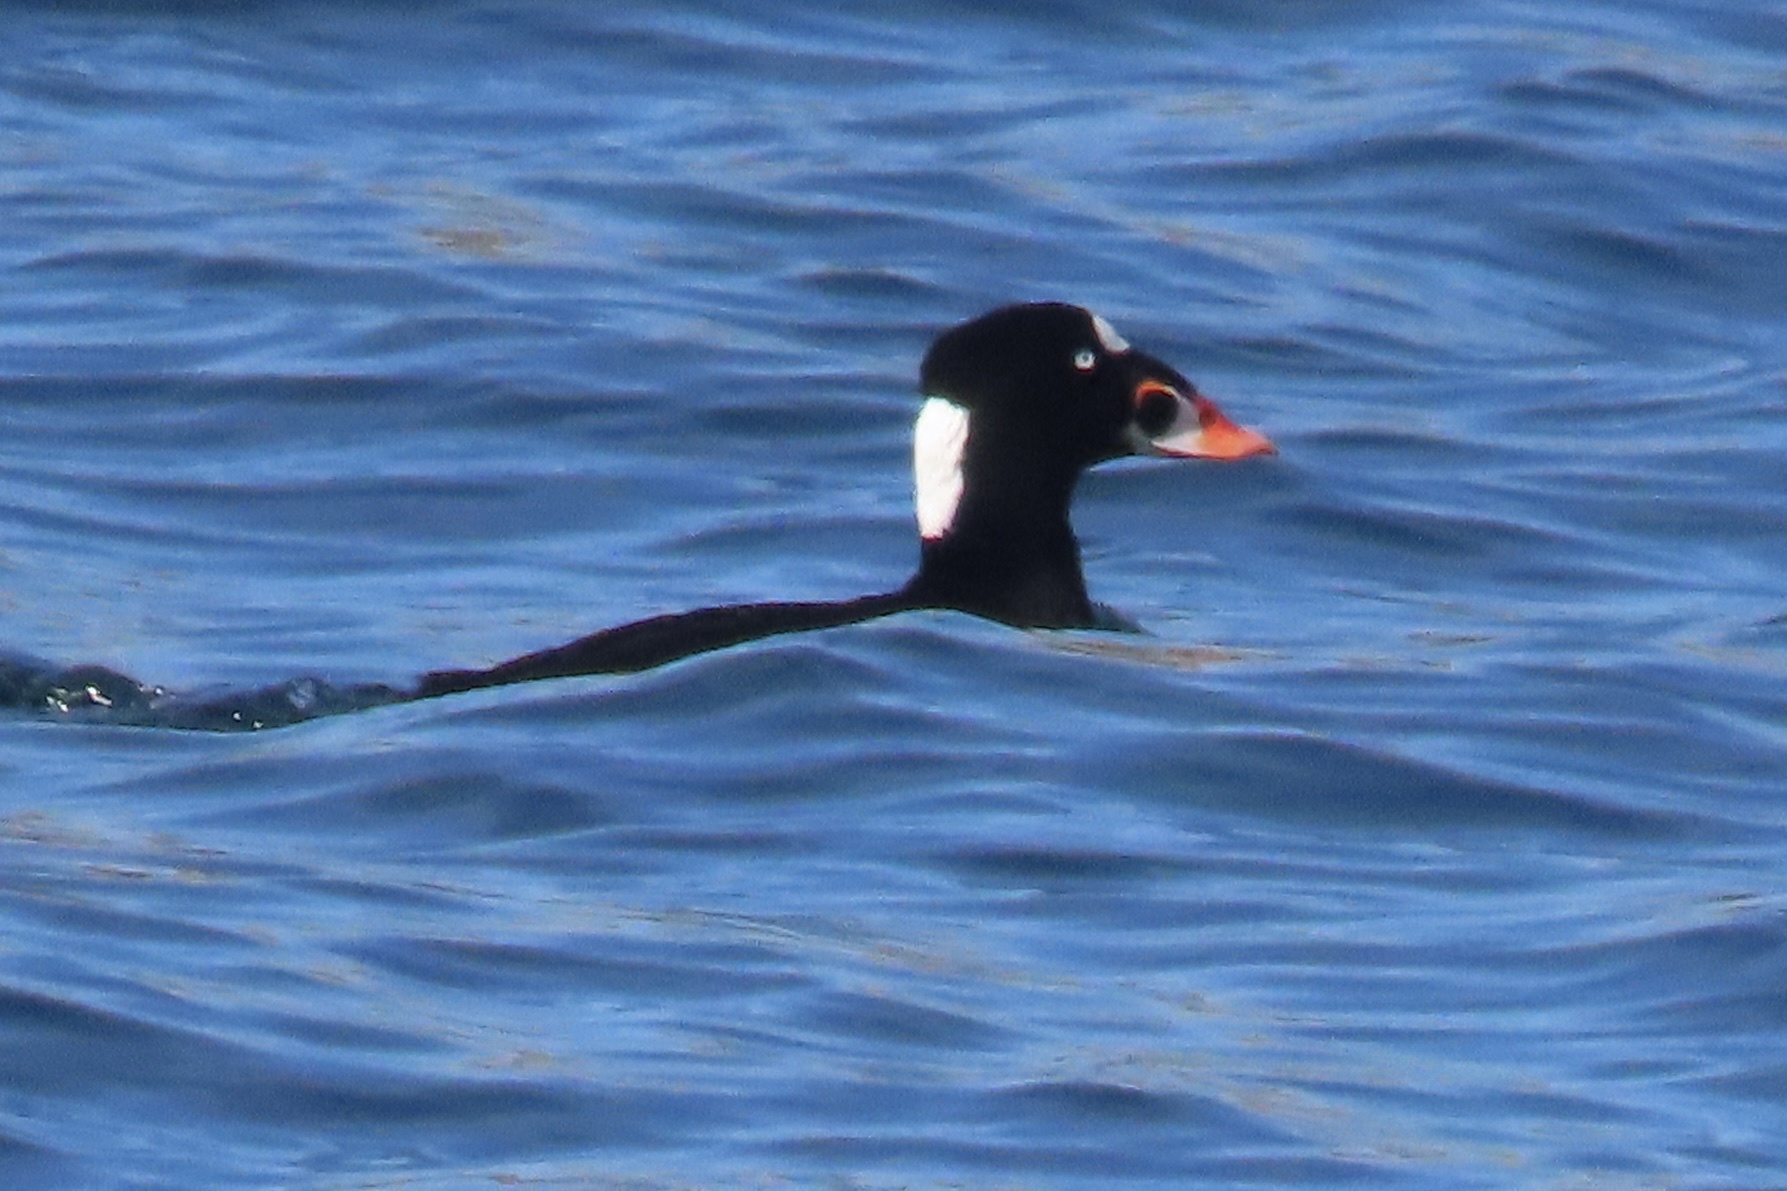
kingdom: Animalia
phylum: Chordata
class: Aves
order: Anseriformes
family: Anatidae
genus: Melanitta
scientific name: Melanitta perspicillata
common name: Surf scoter
